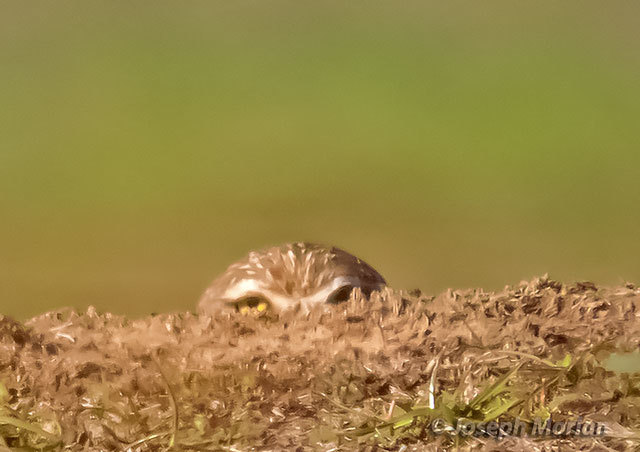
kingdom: Animalia
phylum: Chordata
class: Aves
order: Strigiformes
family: Strigidae
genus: Athene
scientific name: Athene cunicularia
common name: Burrowing owl
